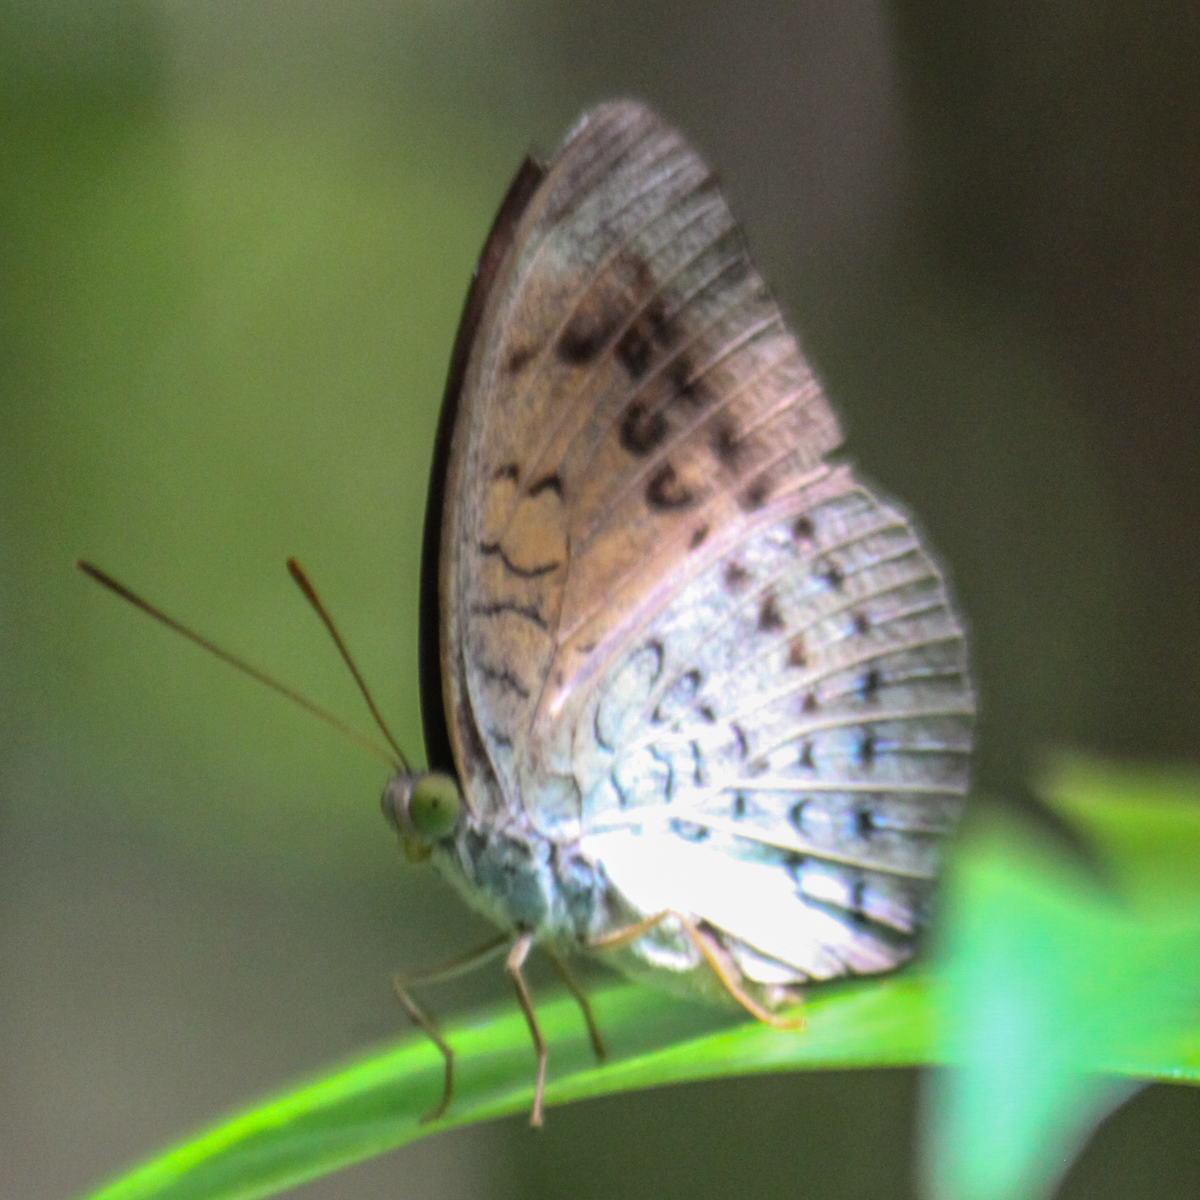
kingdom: Animalia
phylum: Arthropoda
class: Insecta
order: Lepidoptera
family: Nymphalidae
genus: Tanaecia
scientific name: Tanaecia julii
